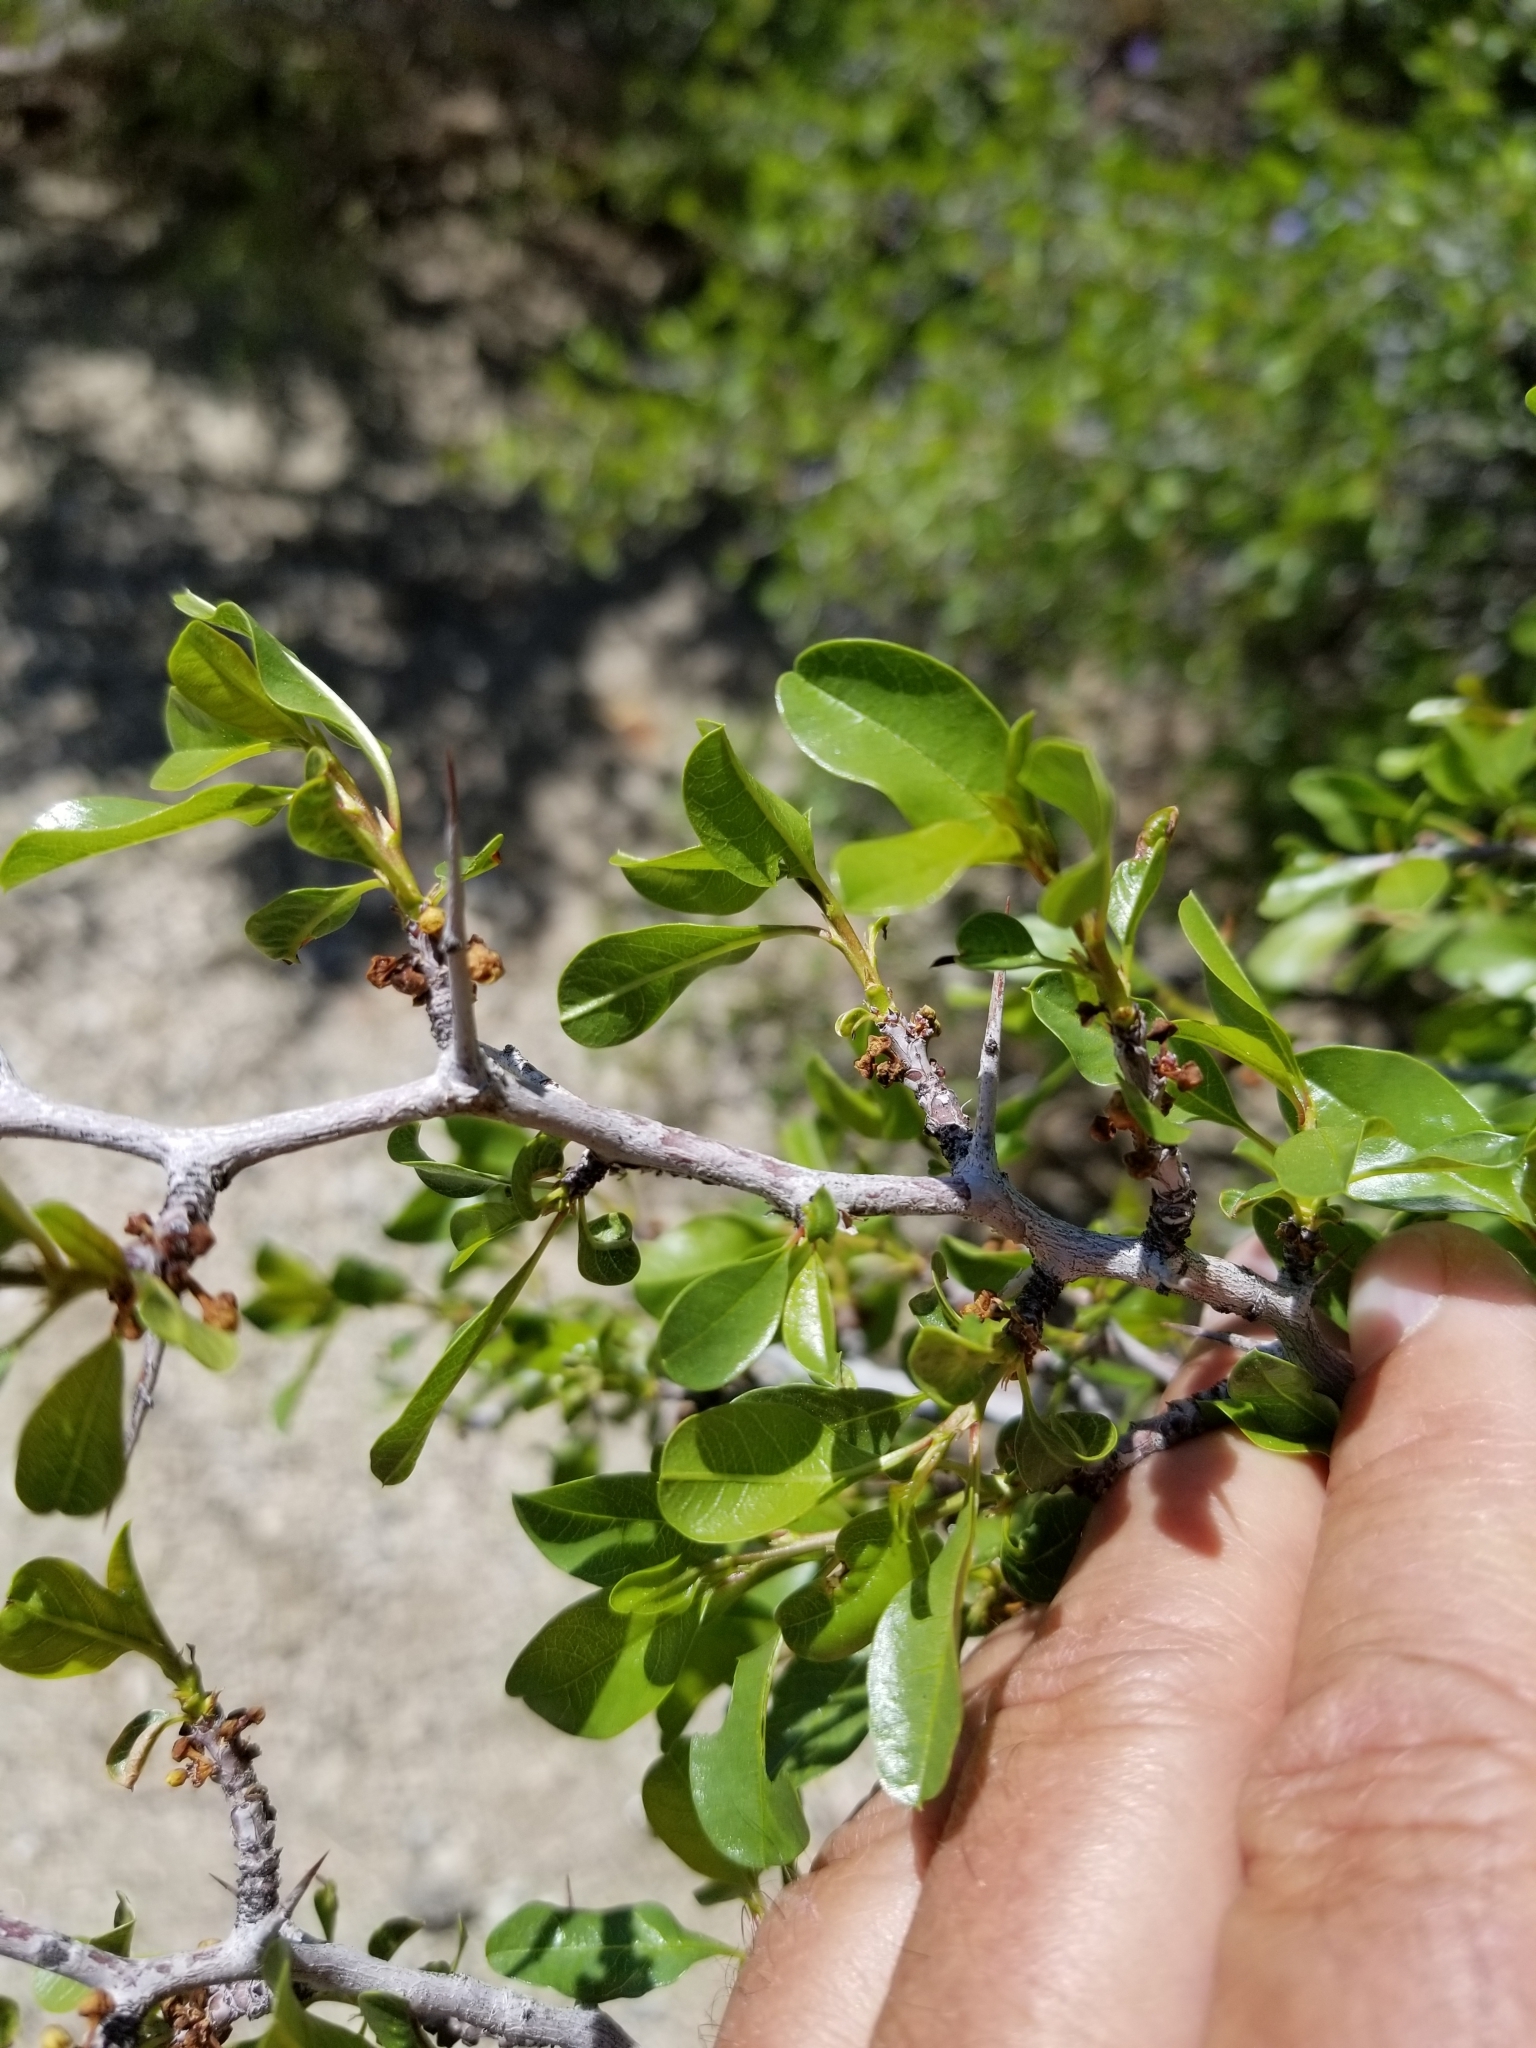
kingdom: Plantae
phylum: Tracheophyta
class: Magnoliopsida
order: Rosales
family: Rhamnaceae
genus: Pseudoziziphus
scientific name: Pseudoziziphus parryi
